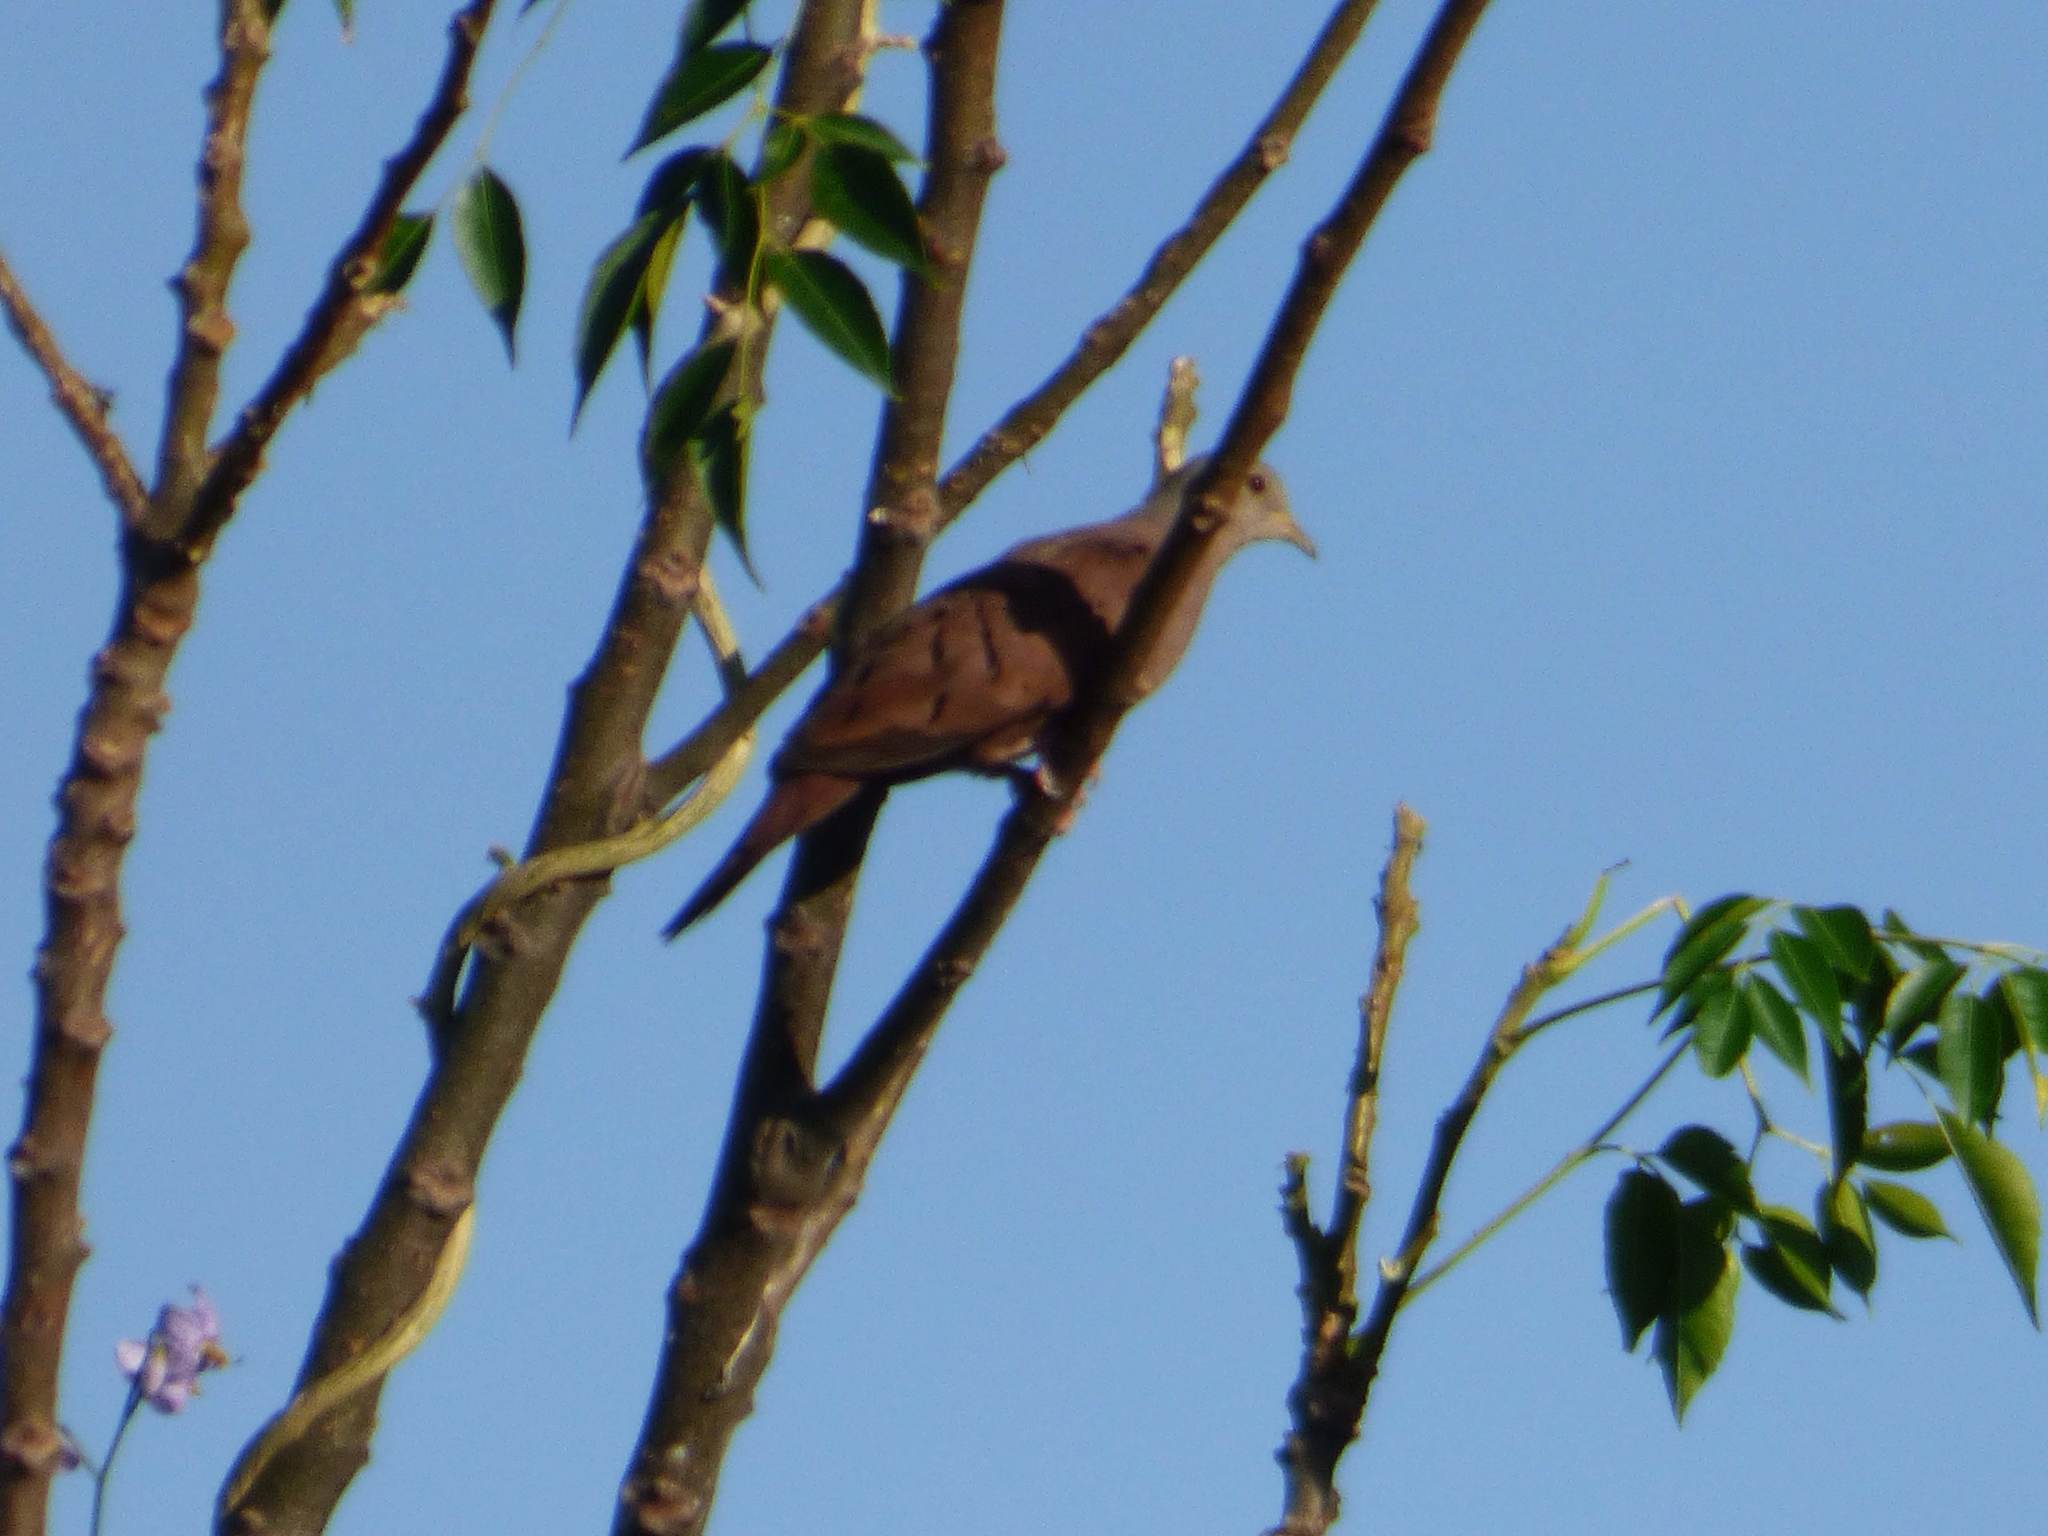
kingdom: Animalia
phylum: Chordata
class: Aves
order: Columbiformes
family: Columbidae
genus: Columbina
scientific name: Columbina talpacoti
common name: Ruddy ground dove
